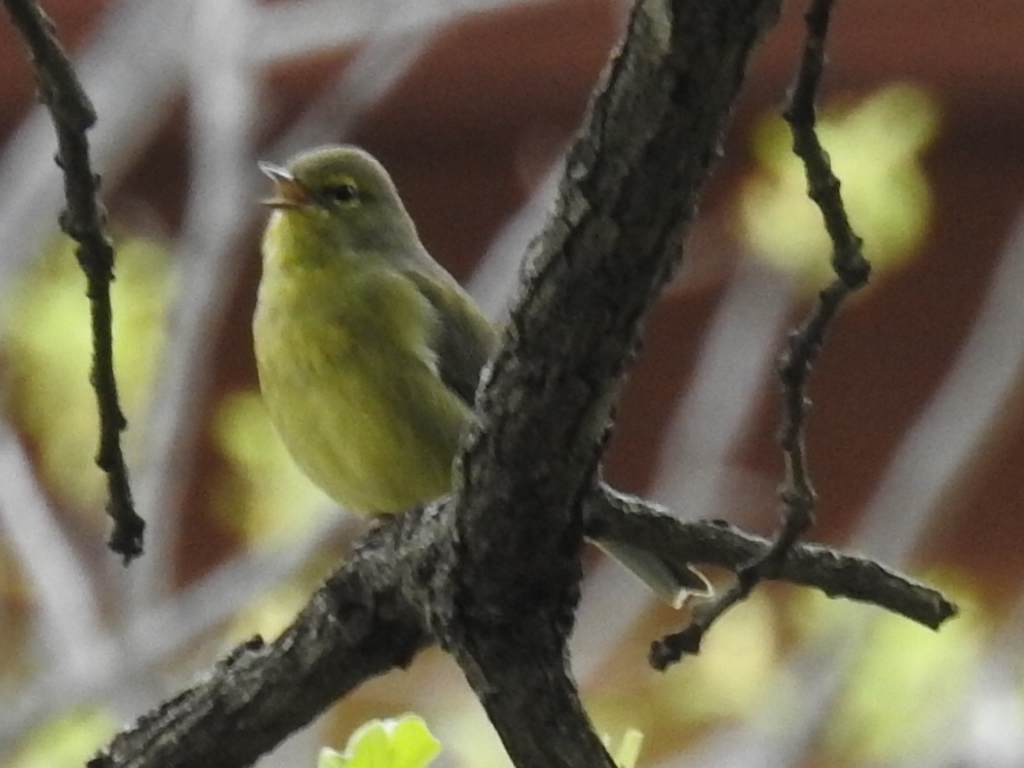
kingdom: Animalia
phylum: Chordata
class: Aves
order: Passeriformes
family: Parulidae
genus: Leiothlypis
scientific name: Leiothlypis celata
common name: Orange-crowned warbler
